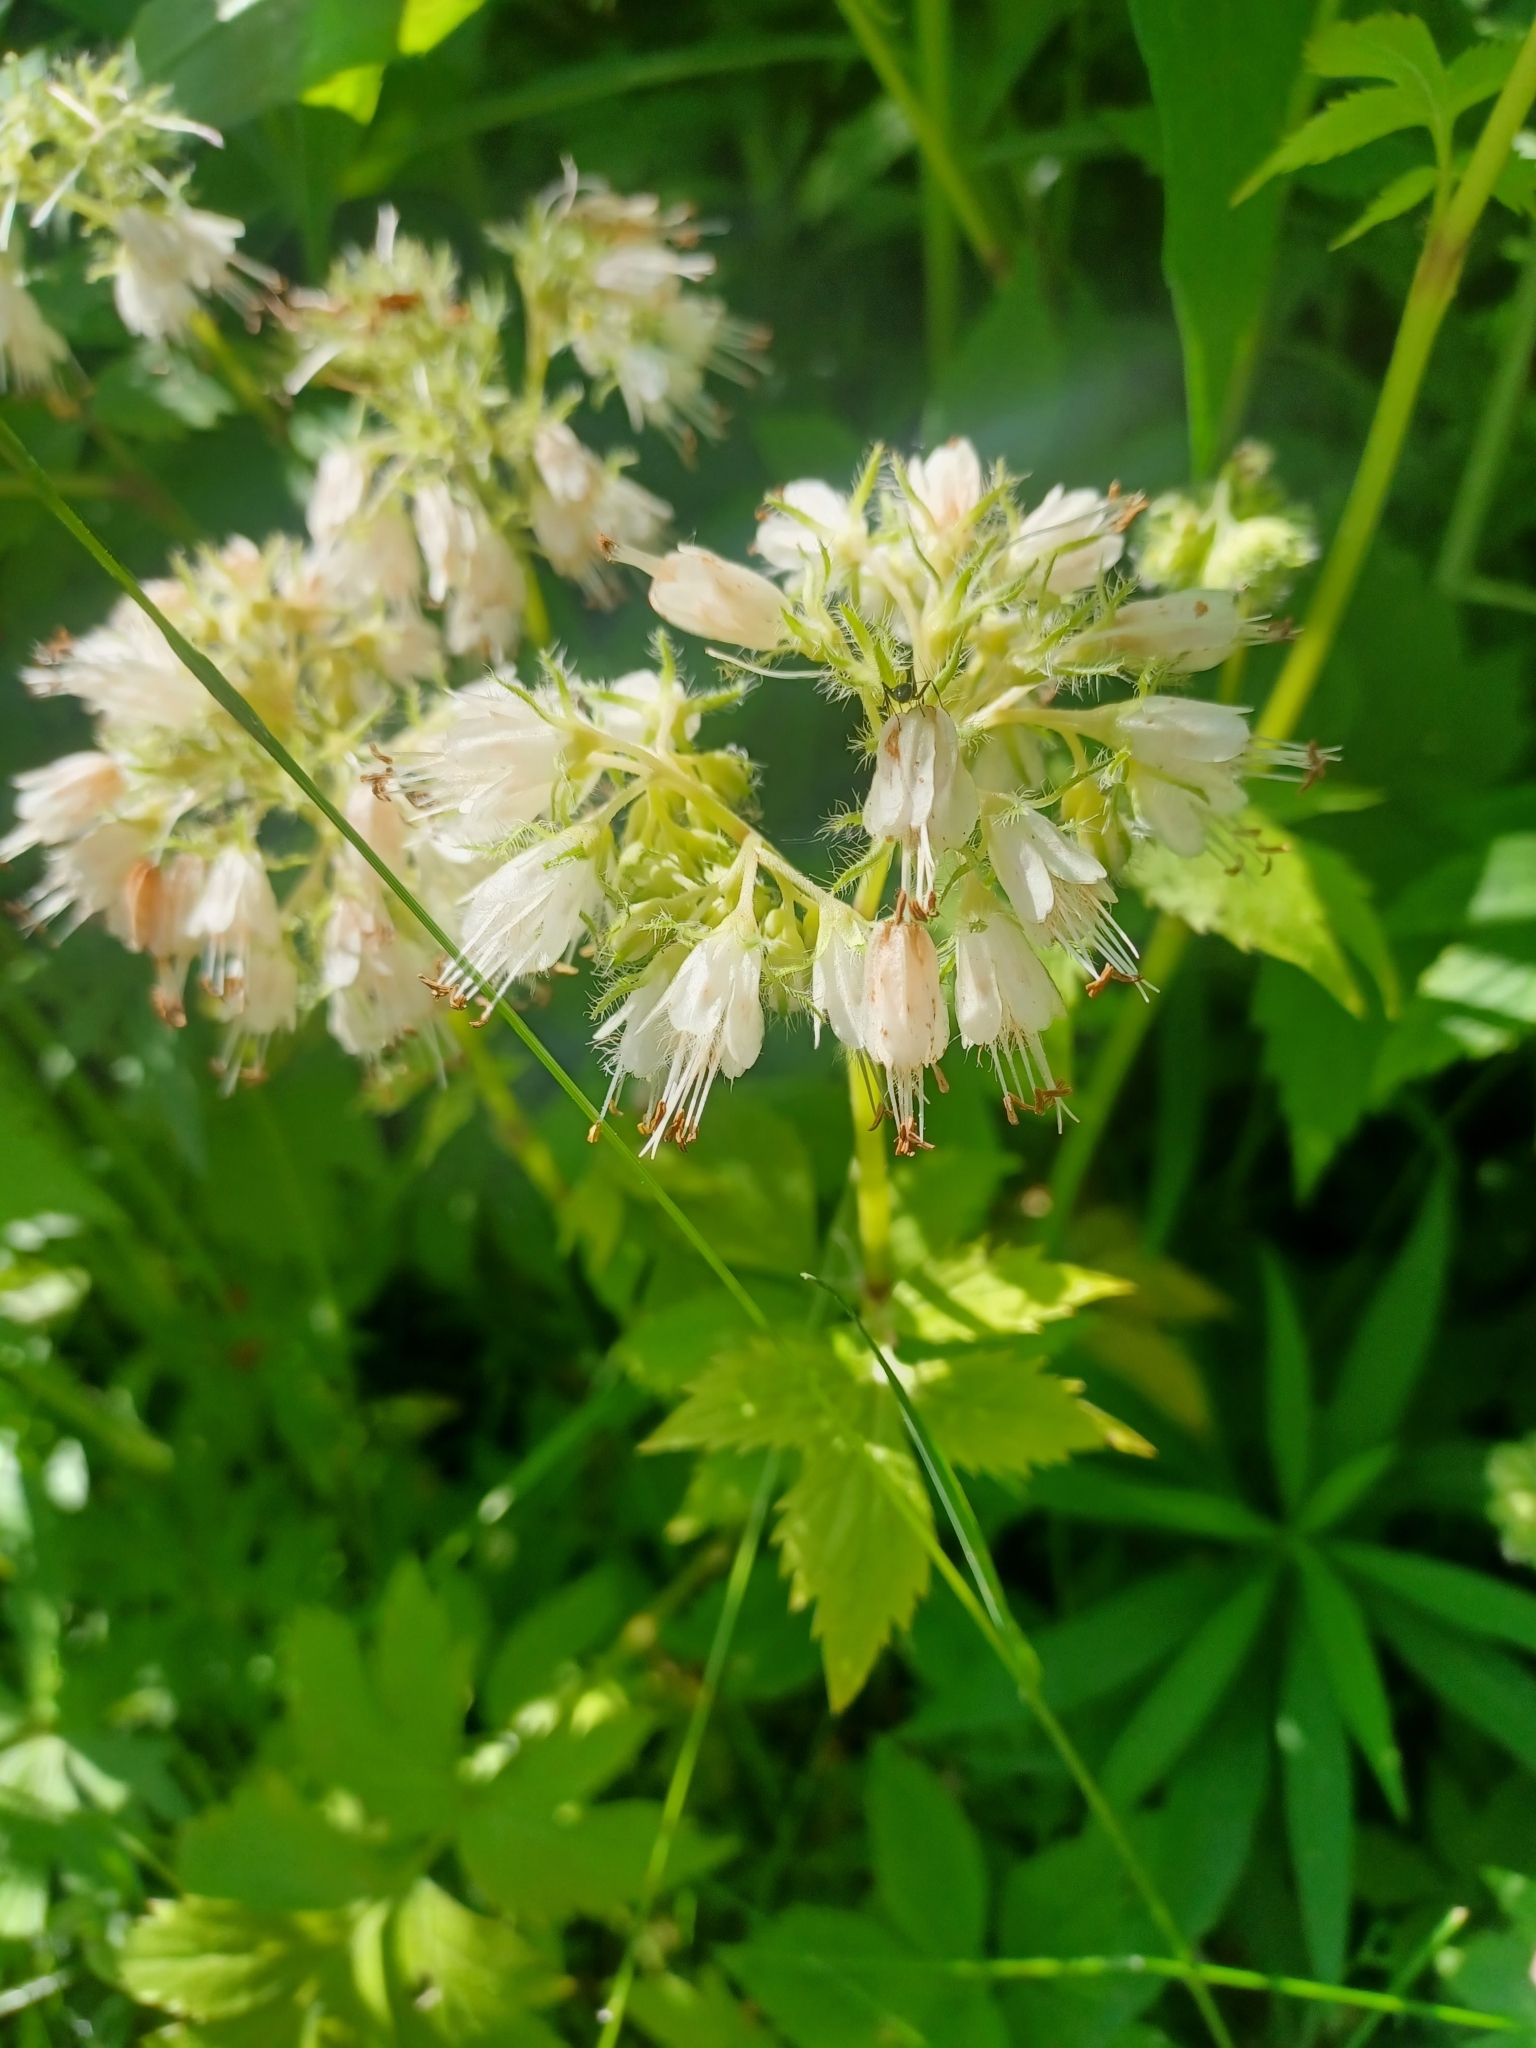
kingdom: Plantae
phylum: Tracheophyta
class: Magnoliopsida
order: Boraginales
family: Hydrophyllaceae
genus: Hydrophyllum
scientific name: Hydrophyllum virginianum
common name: Virginia waterleaf
